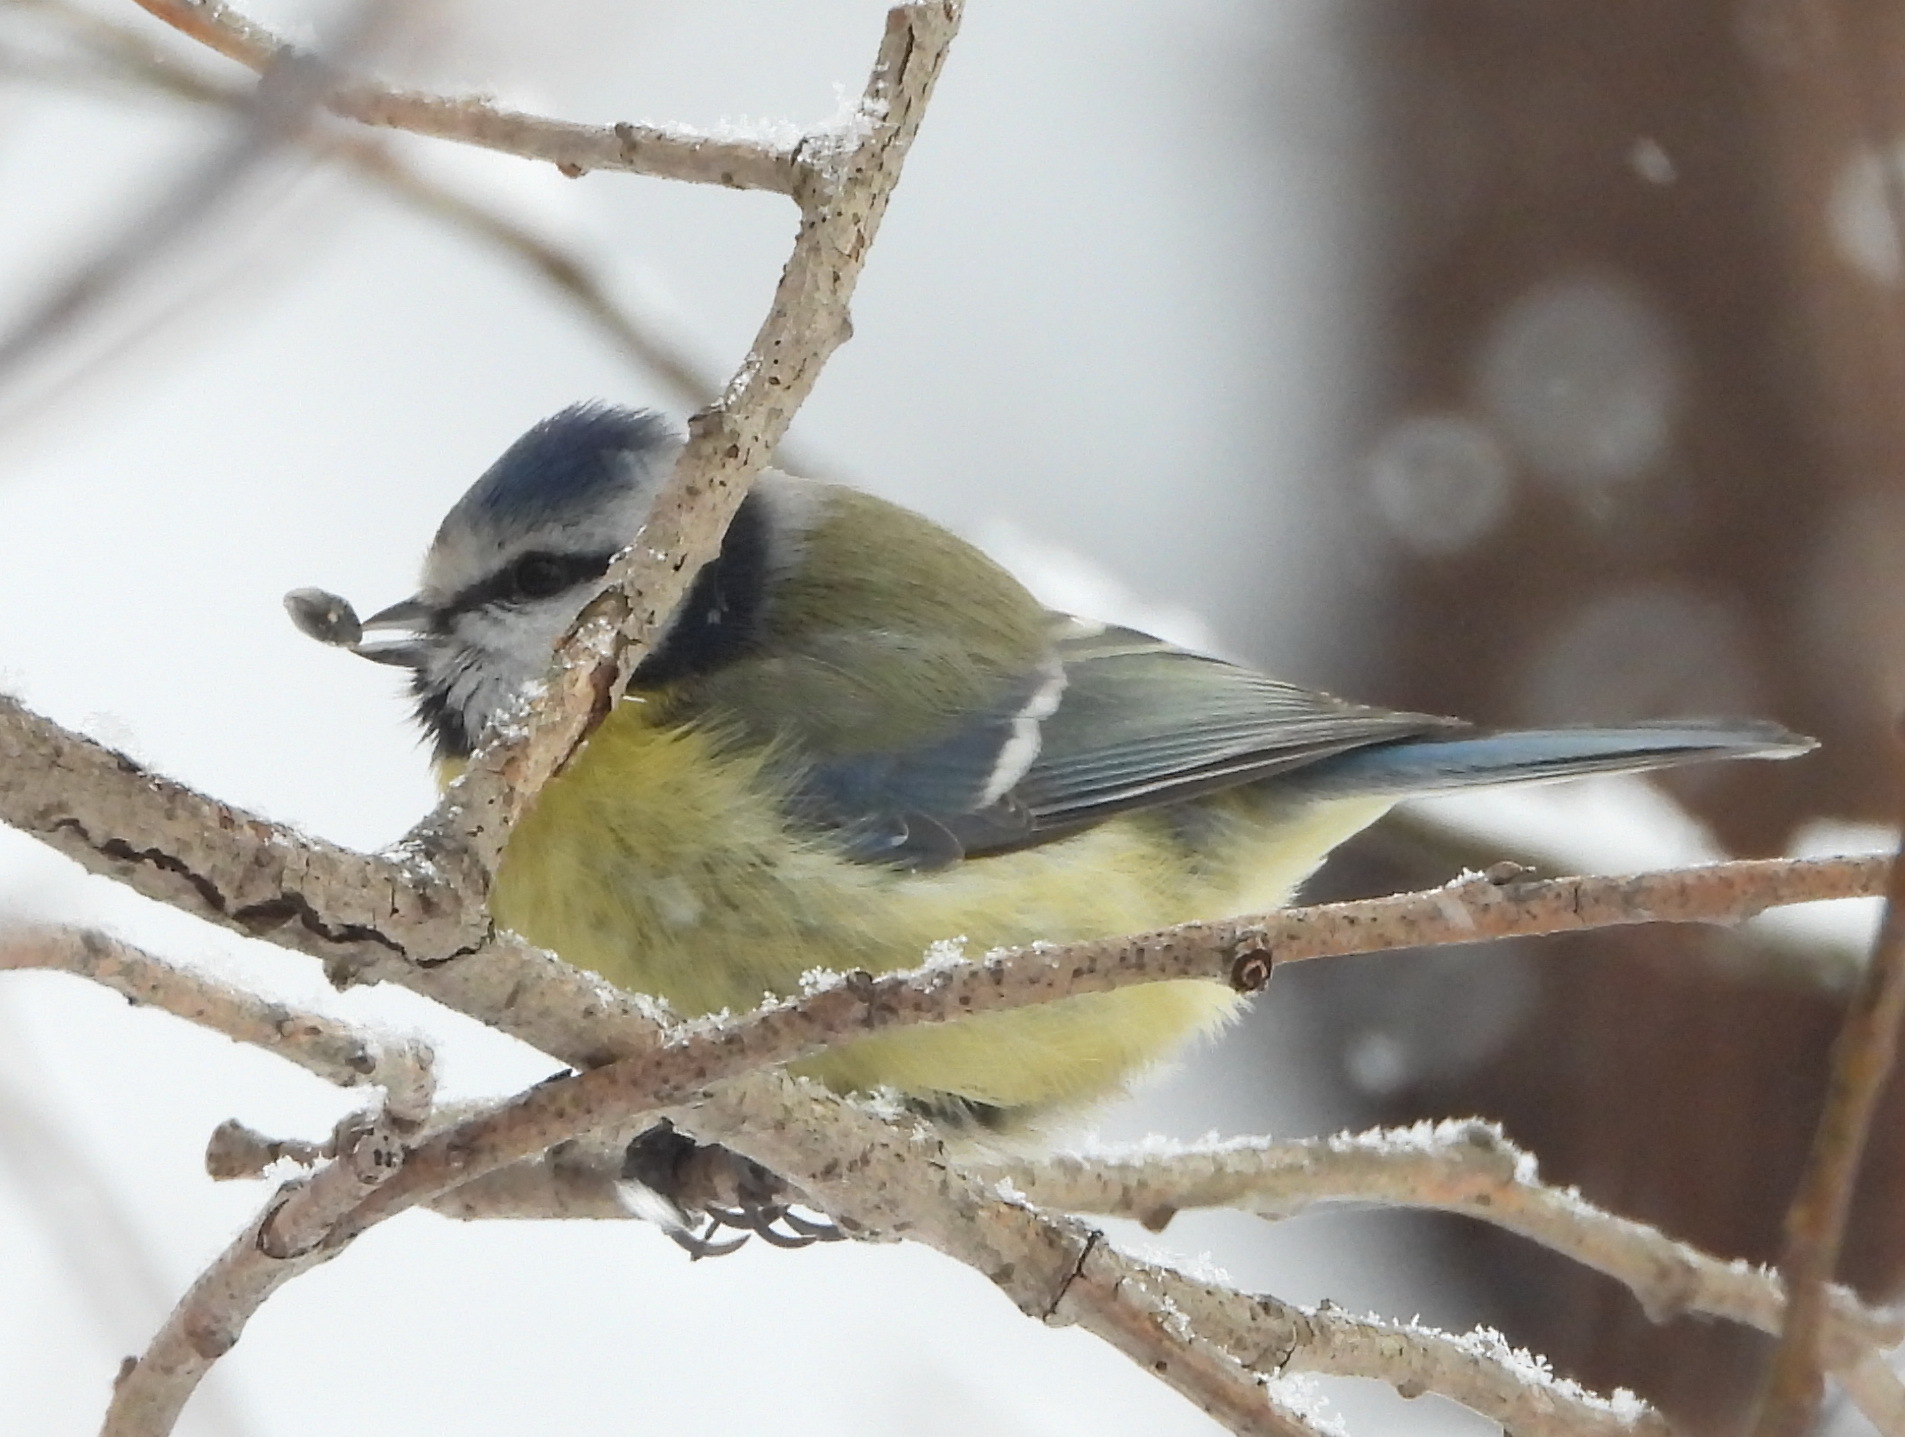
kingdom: Animalia
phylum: Chordata
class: Aves
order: Passeriformes
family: Paridae
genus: Cyanistes
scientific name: Cyanistes caeruleus
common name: Eurasian blue tit
